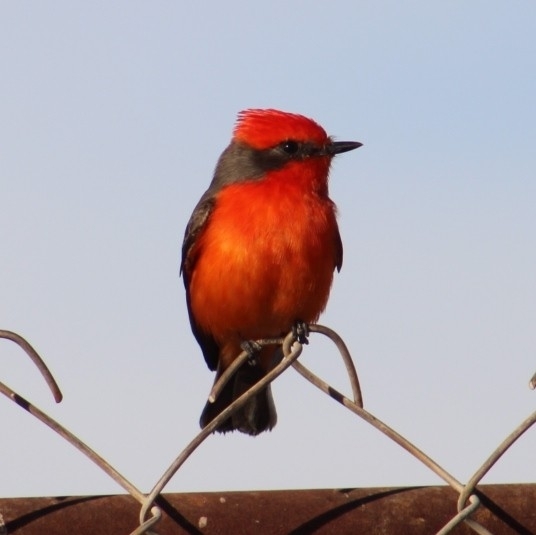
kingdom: Animalia
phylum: Chordata
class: Aves
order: Passeriformes
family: Tyrannidae
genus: Pyrocephalus
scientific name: Pyrocephalus rubinus
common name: Vermilion flycatcher
